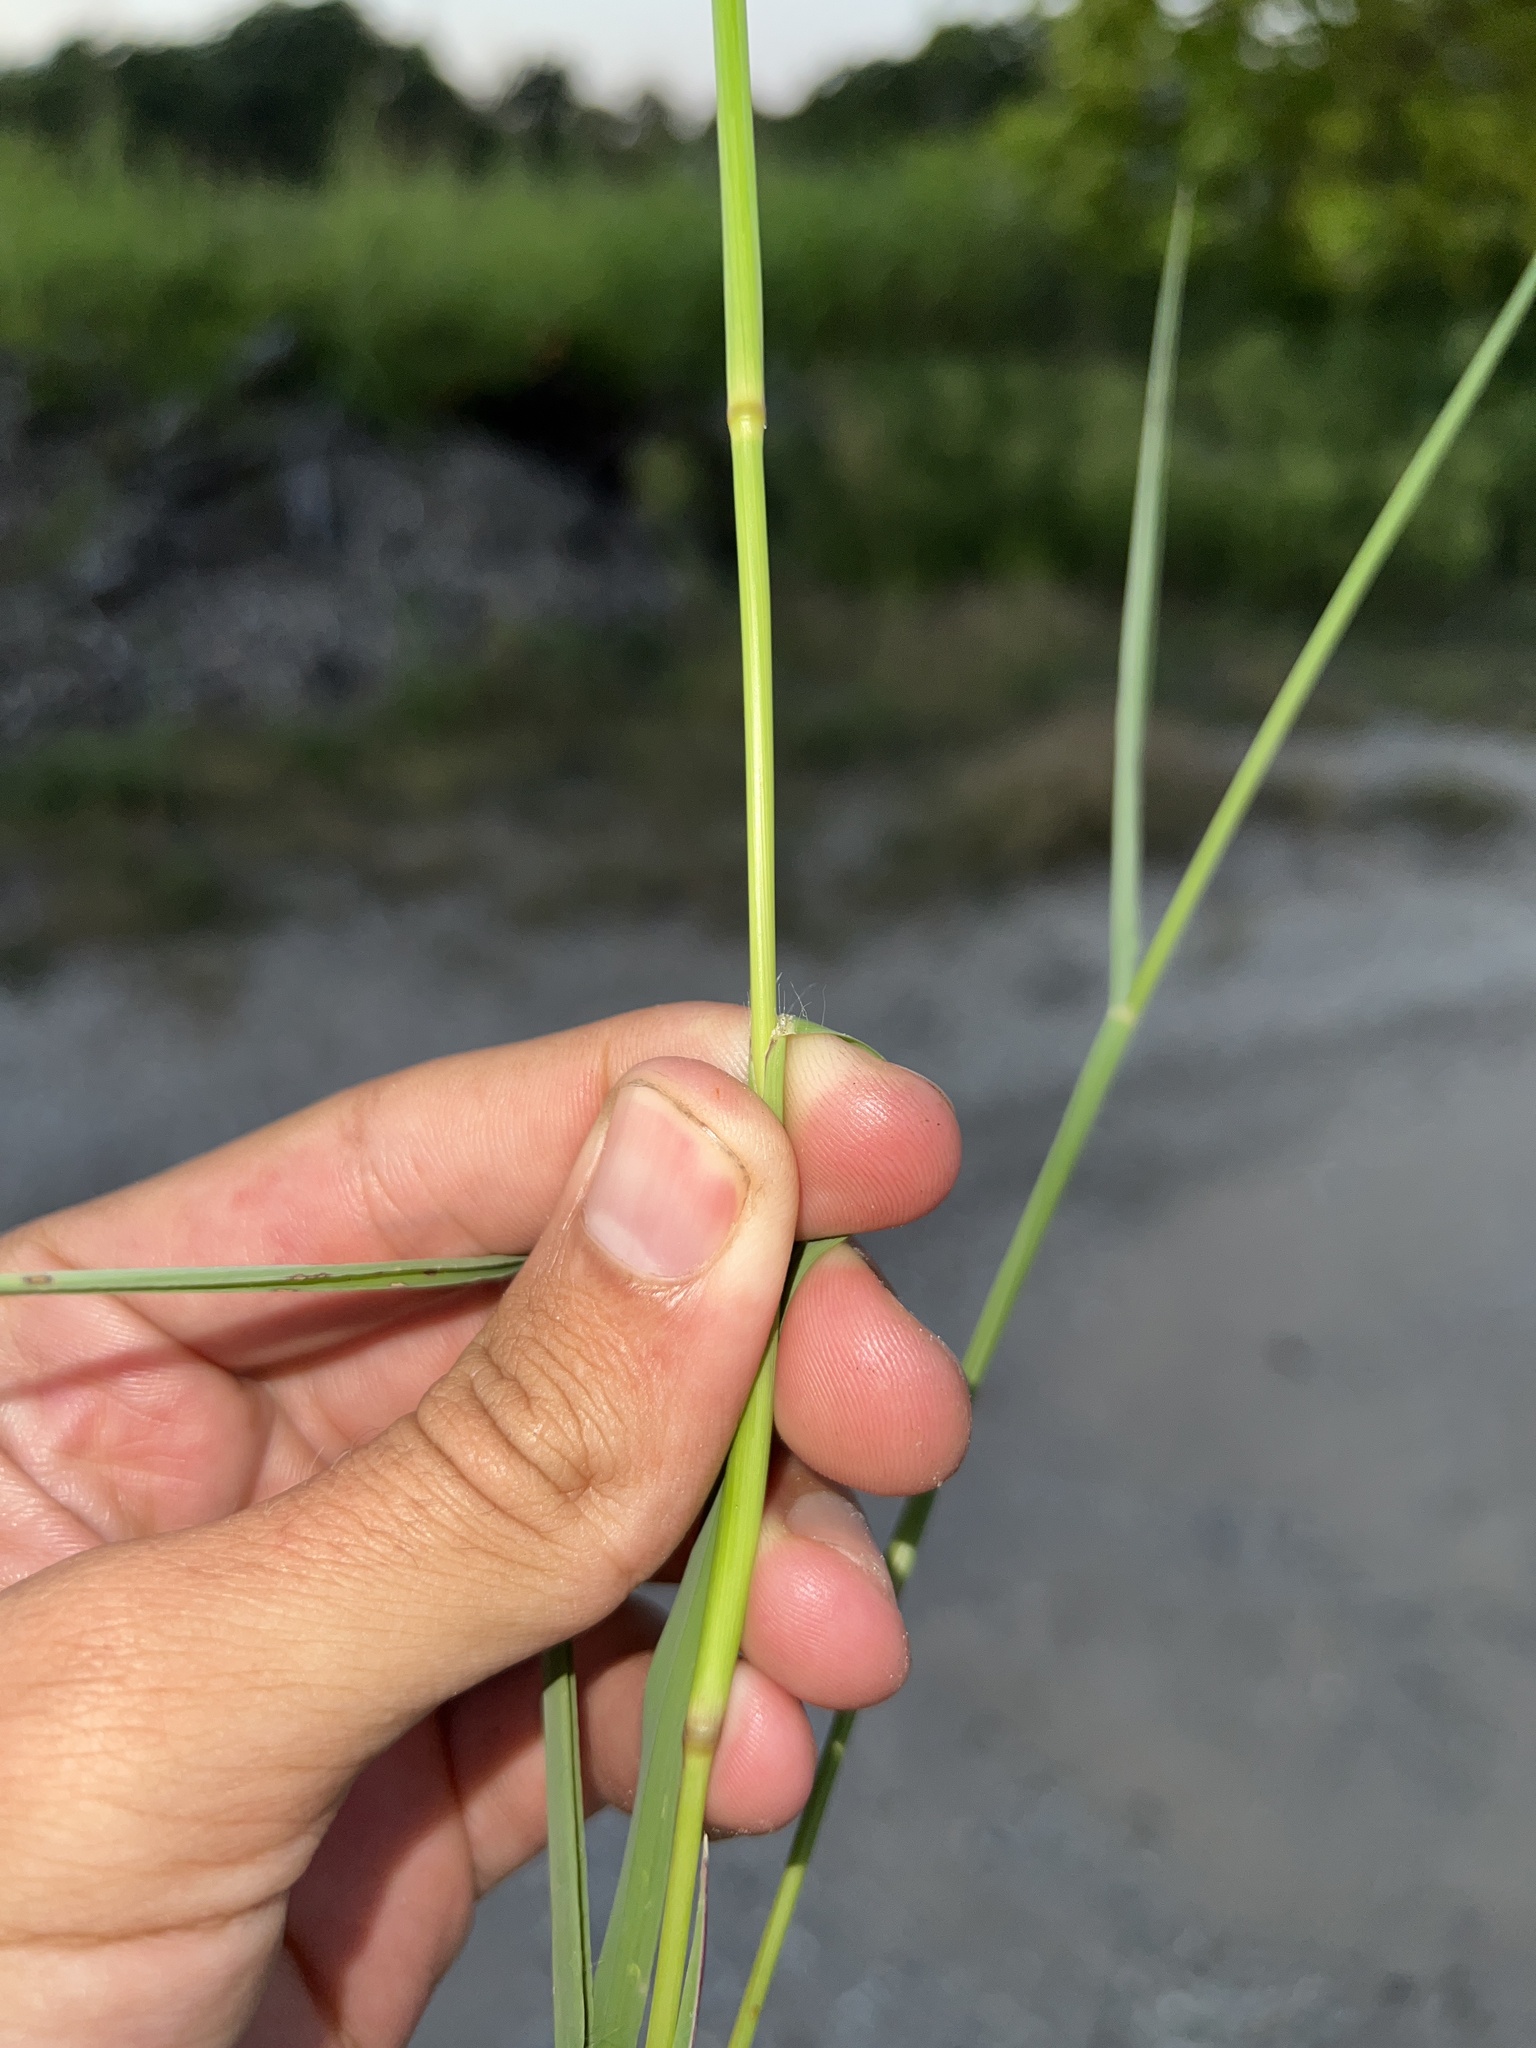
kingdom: Plantae
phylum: Tracheophyta
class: Liliopsida
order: Poales
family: Poaceae
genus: Chloris
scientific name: Chloris virgata
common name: Feathery rhodes-grass
